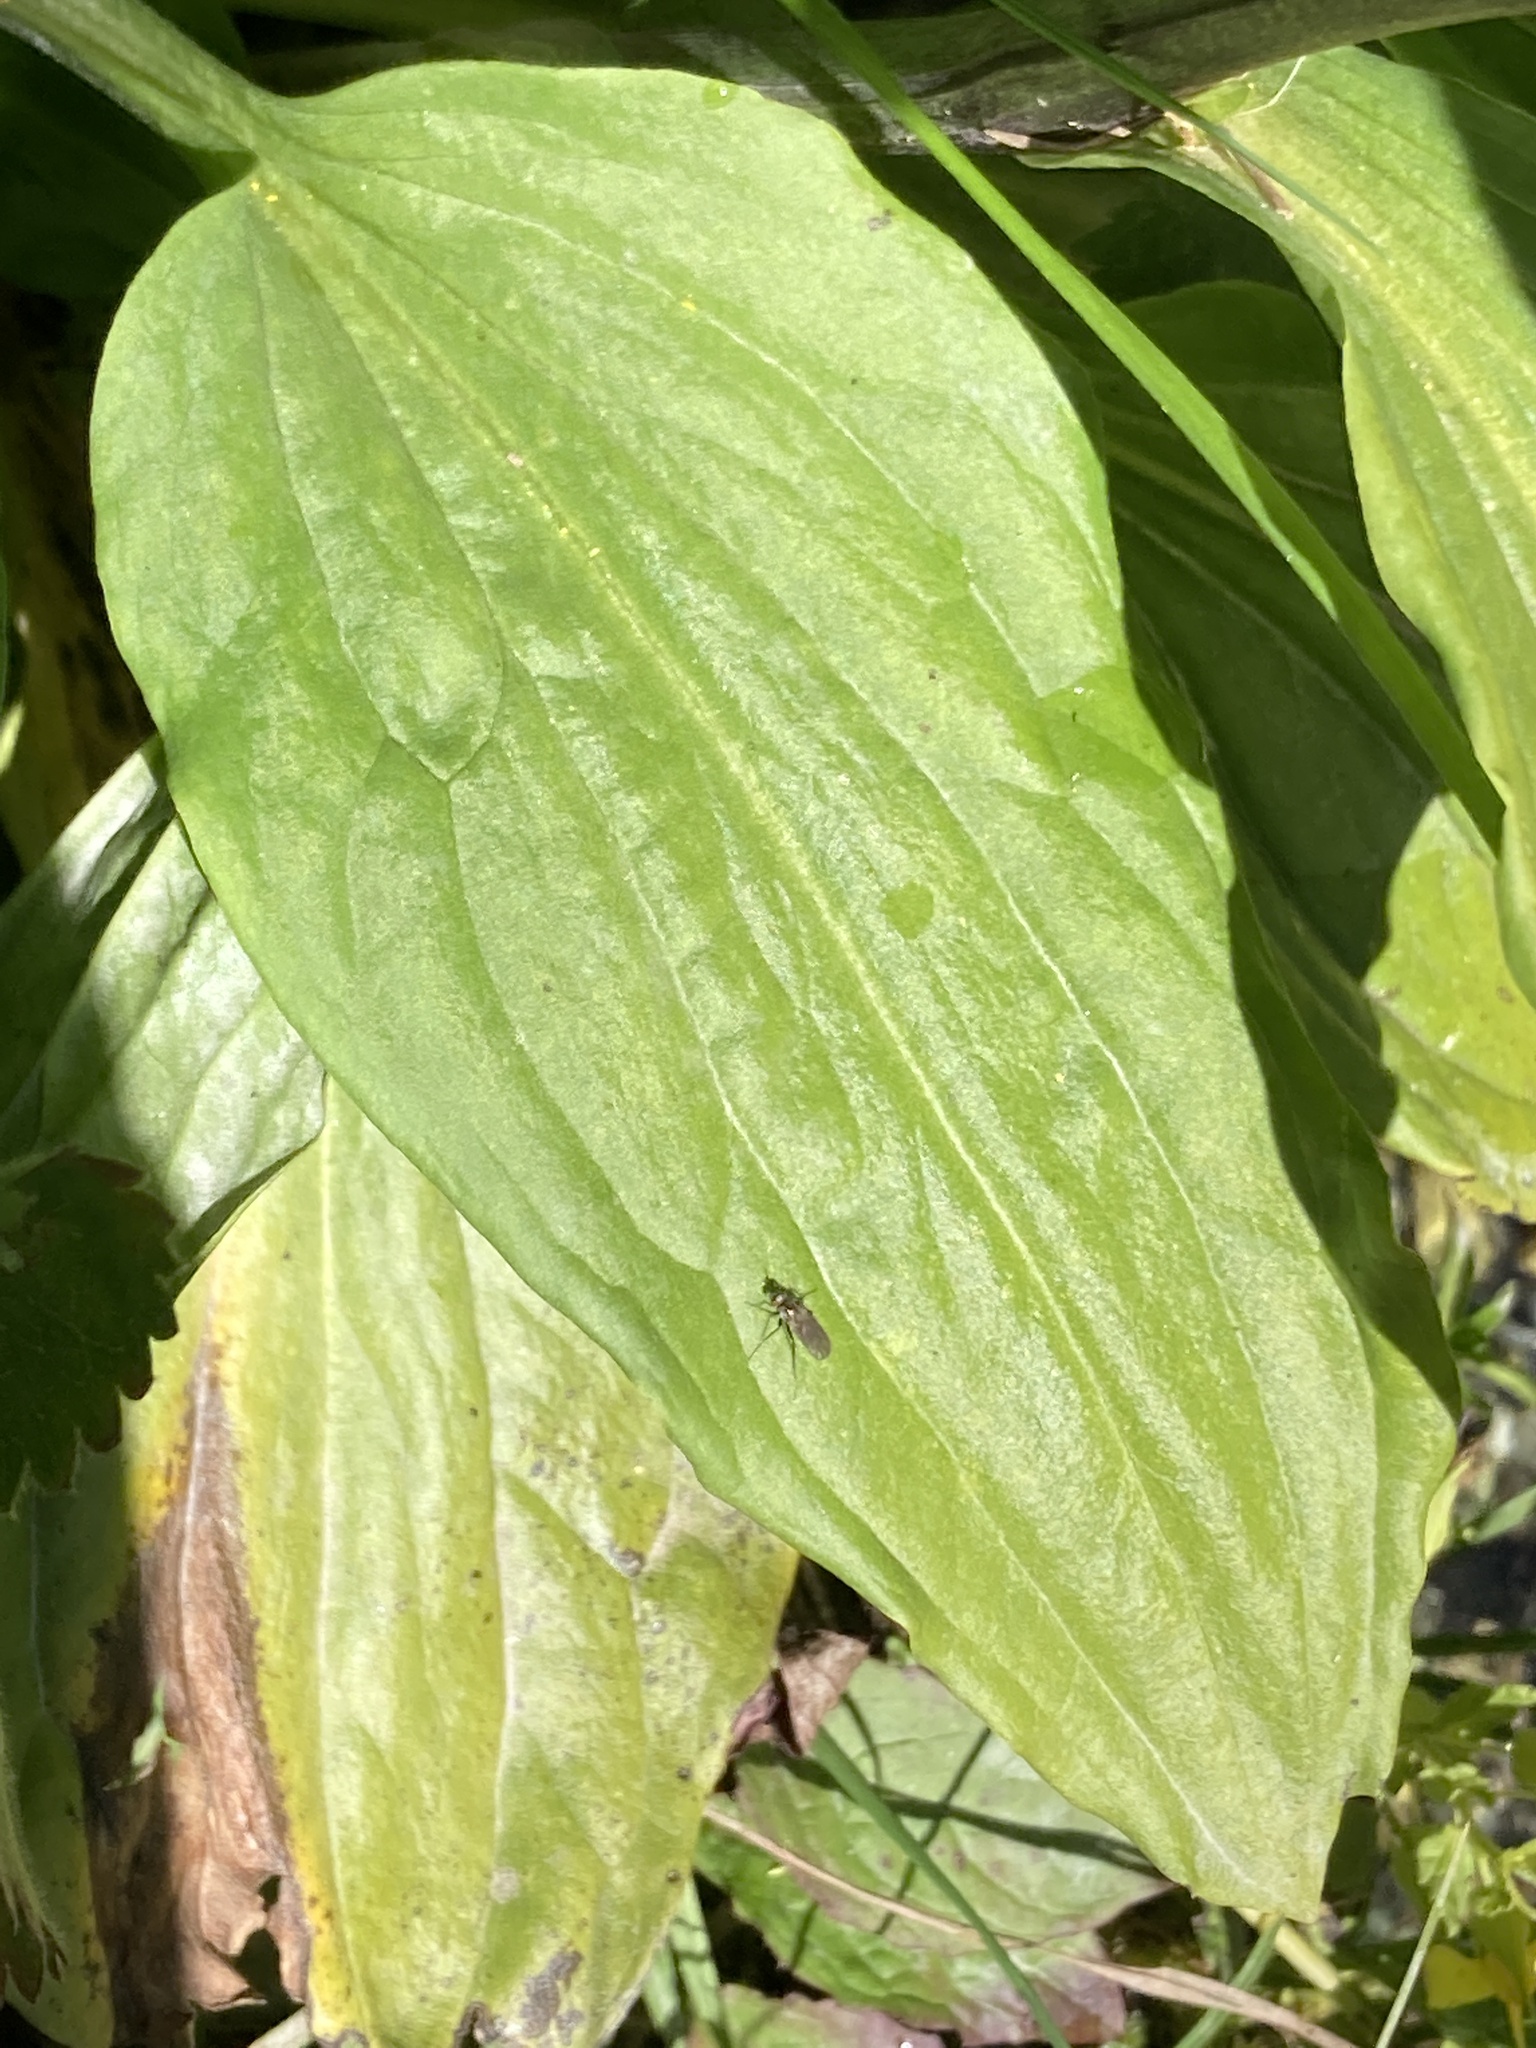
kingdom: Plantae
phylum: Tracheophyta
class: Magnoliopsida
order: Gentianales
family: Gentianaceae
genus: Swertia
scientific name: Swertia iberica
